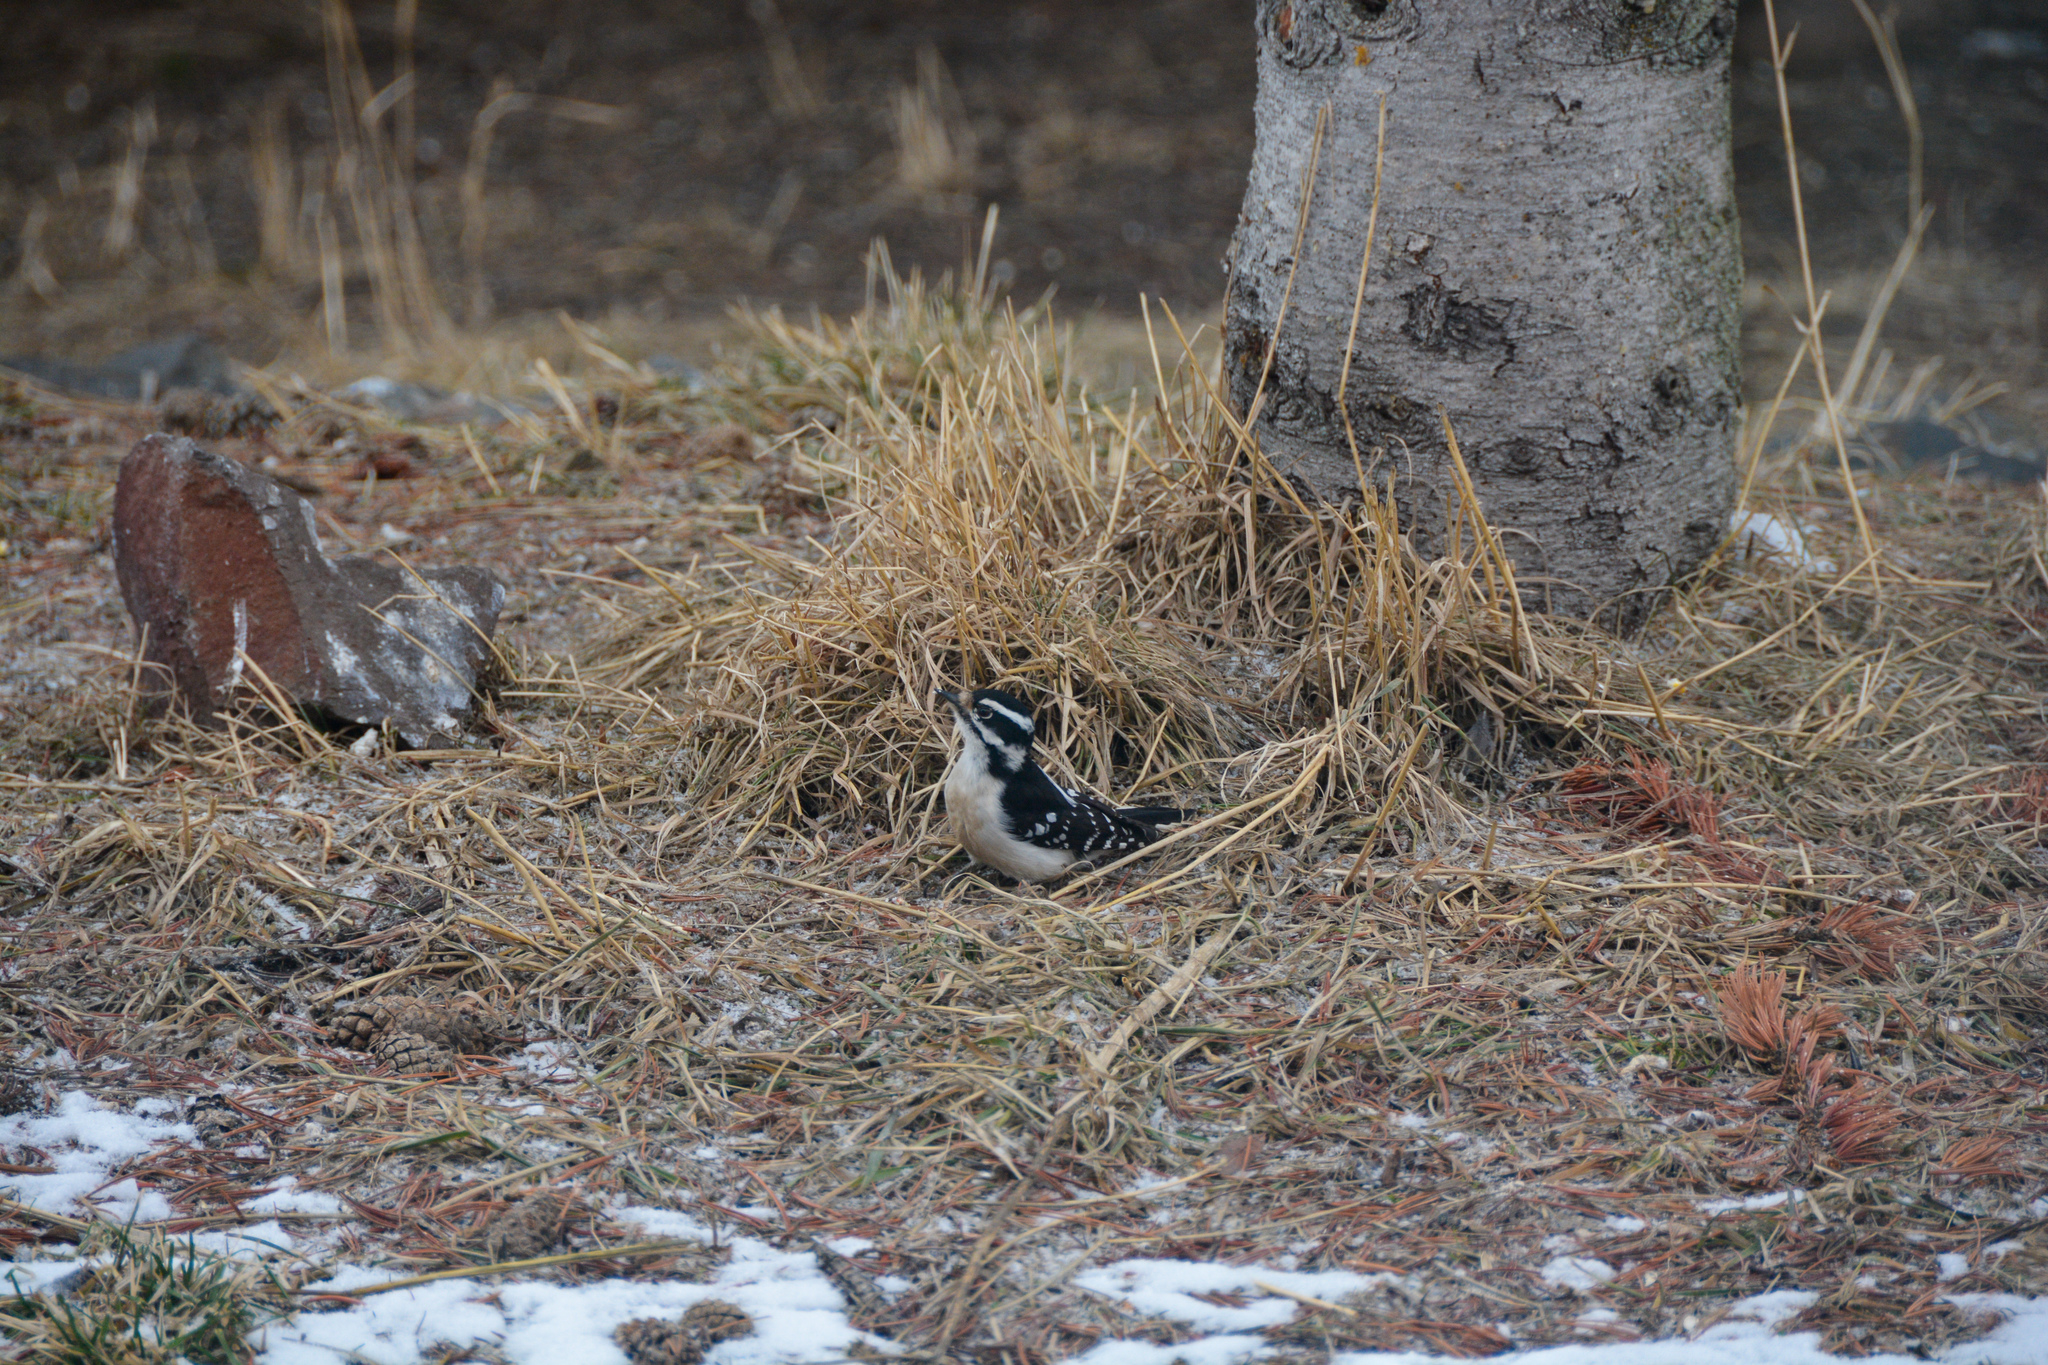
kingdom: Animalia
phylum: Chordata
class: Aves
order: Piciformes
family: Picidae
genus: Dryobates
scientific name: Dryobates pubescens
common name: Downy woodpecker
